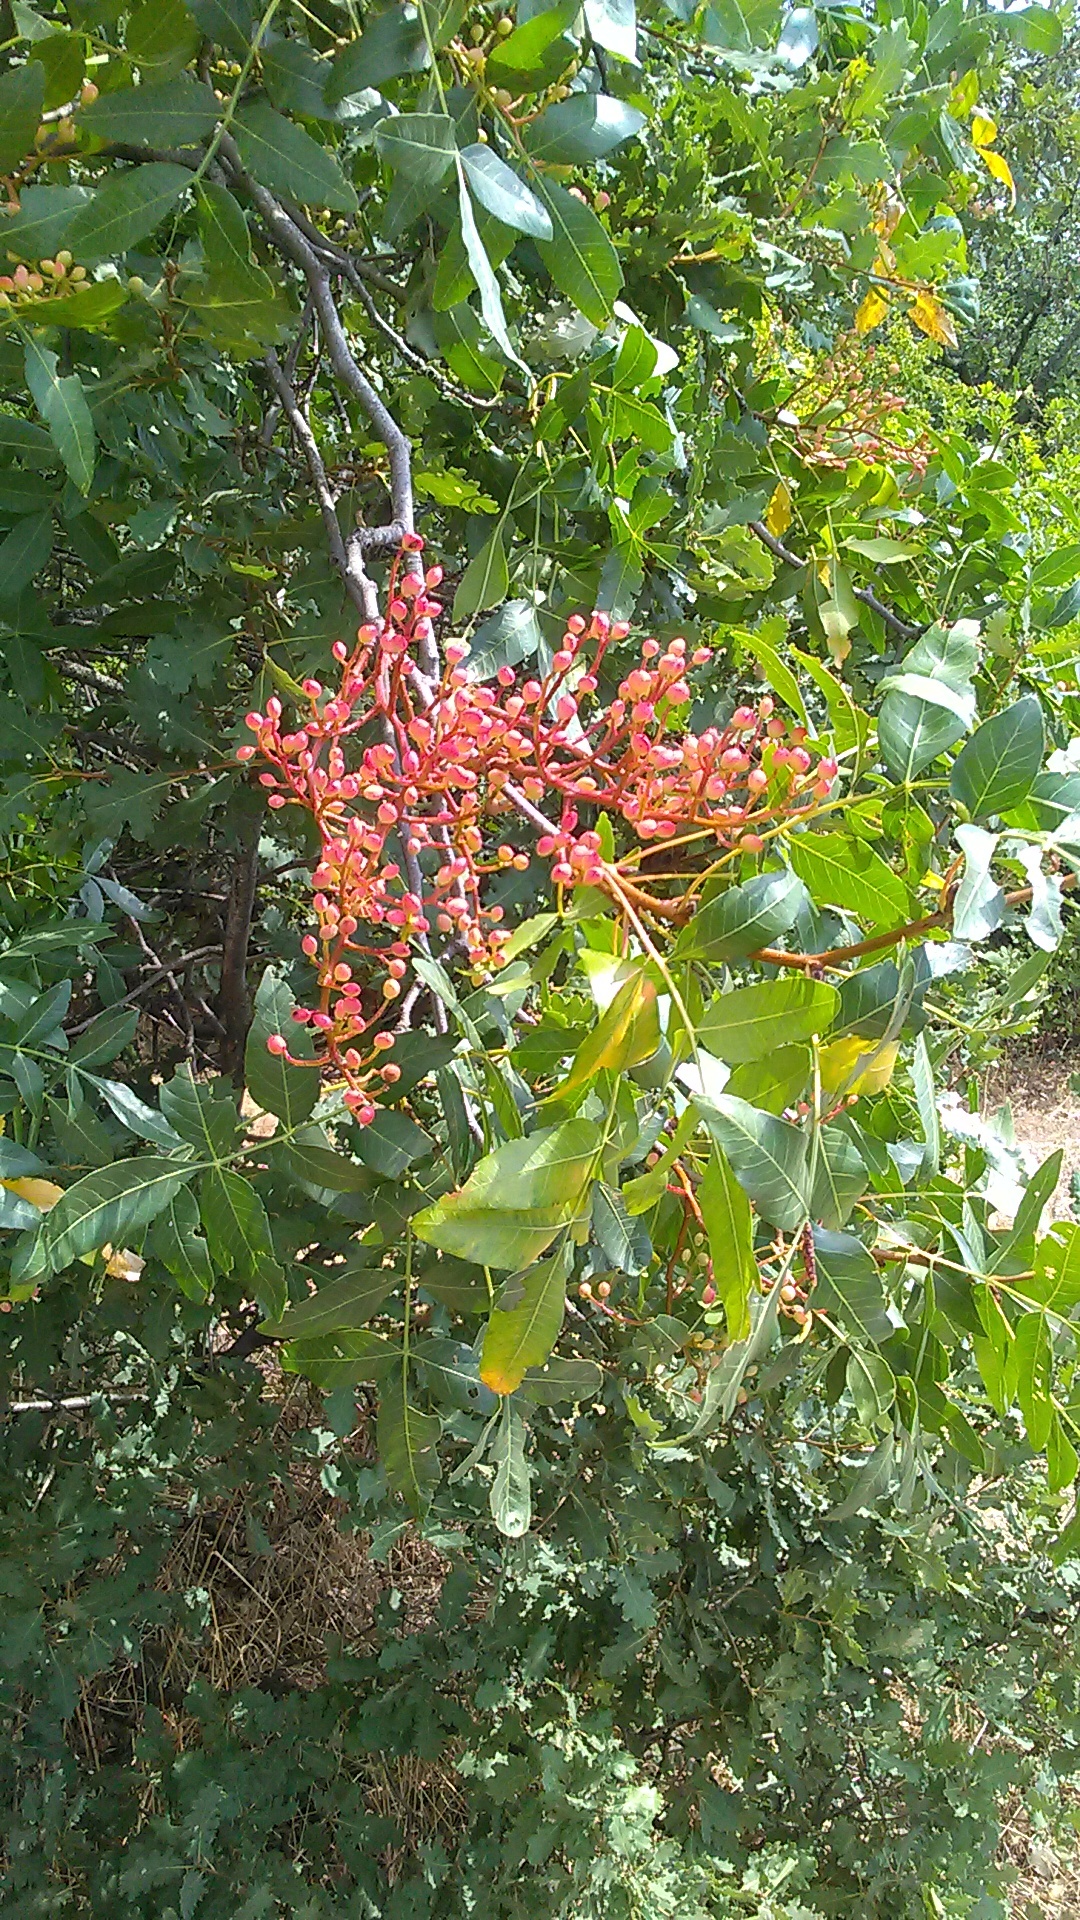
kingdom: Plantae
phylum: Tracheophyta
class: Magnoliopsida
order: Sapindales
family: Anacardiaceae
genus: Pistacia
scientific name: Pistacia atlantica
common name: Mt. atlas mastic tree
